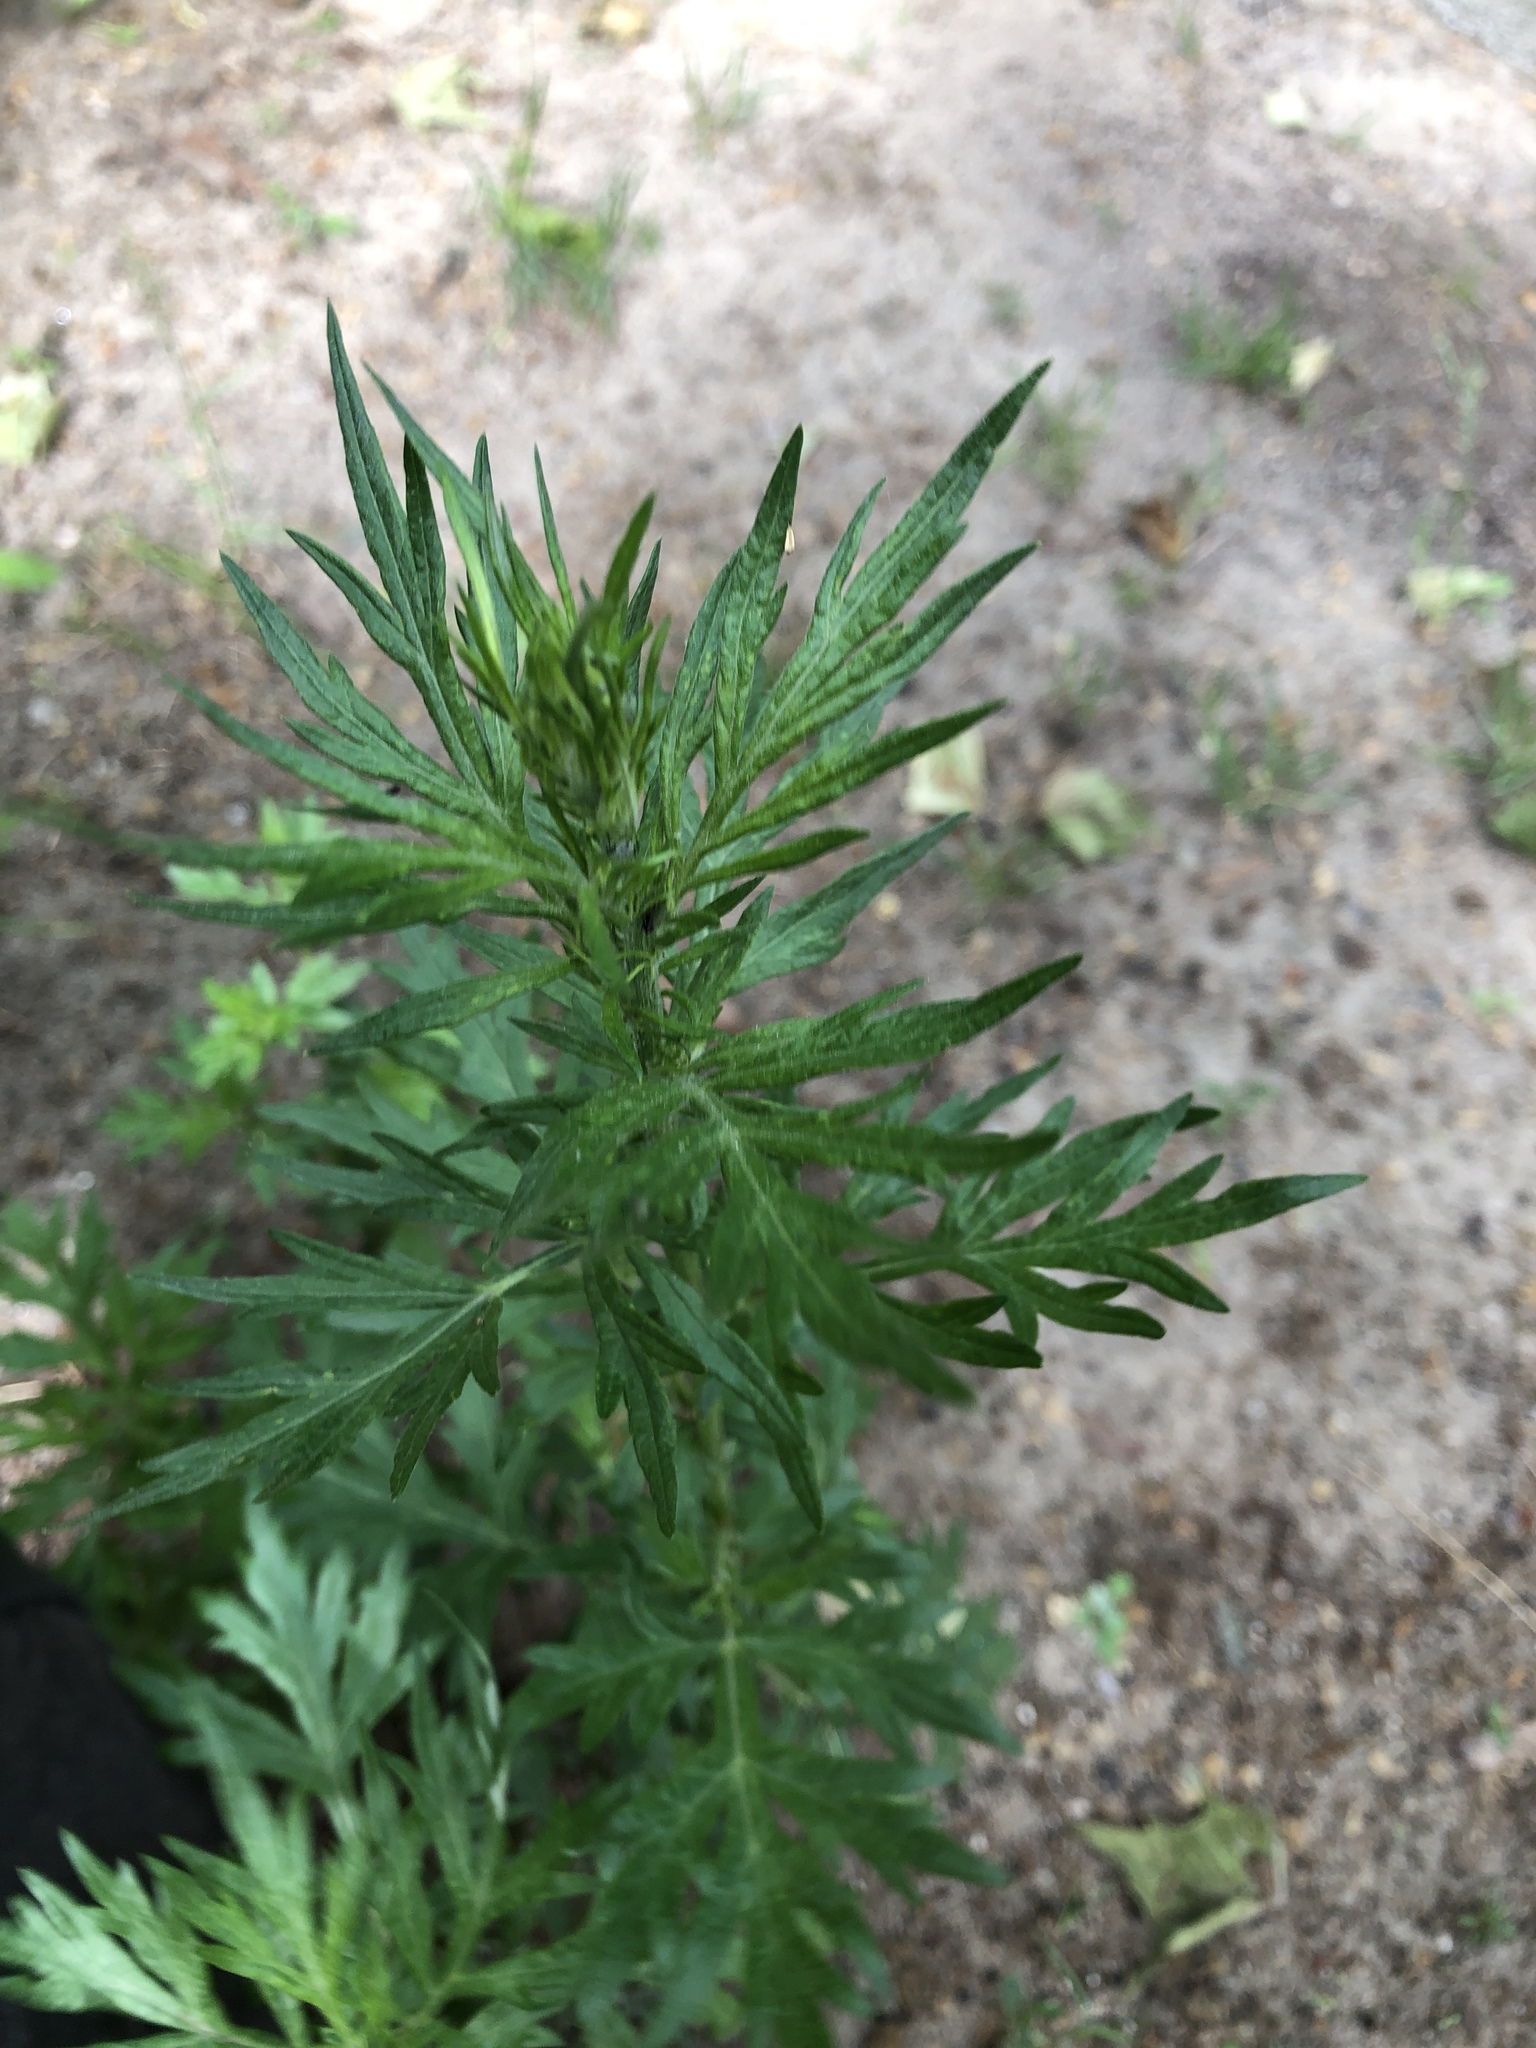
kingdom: Plantae
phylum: Tracheophyta
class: Magnoliopsida
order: Asterales
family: Asteraceae
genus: Artemisia
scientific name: Artemisia vulgaris
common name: Mugwort
